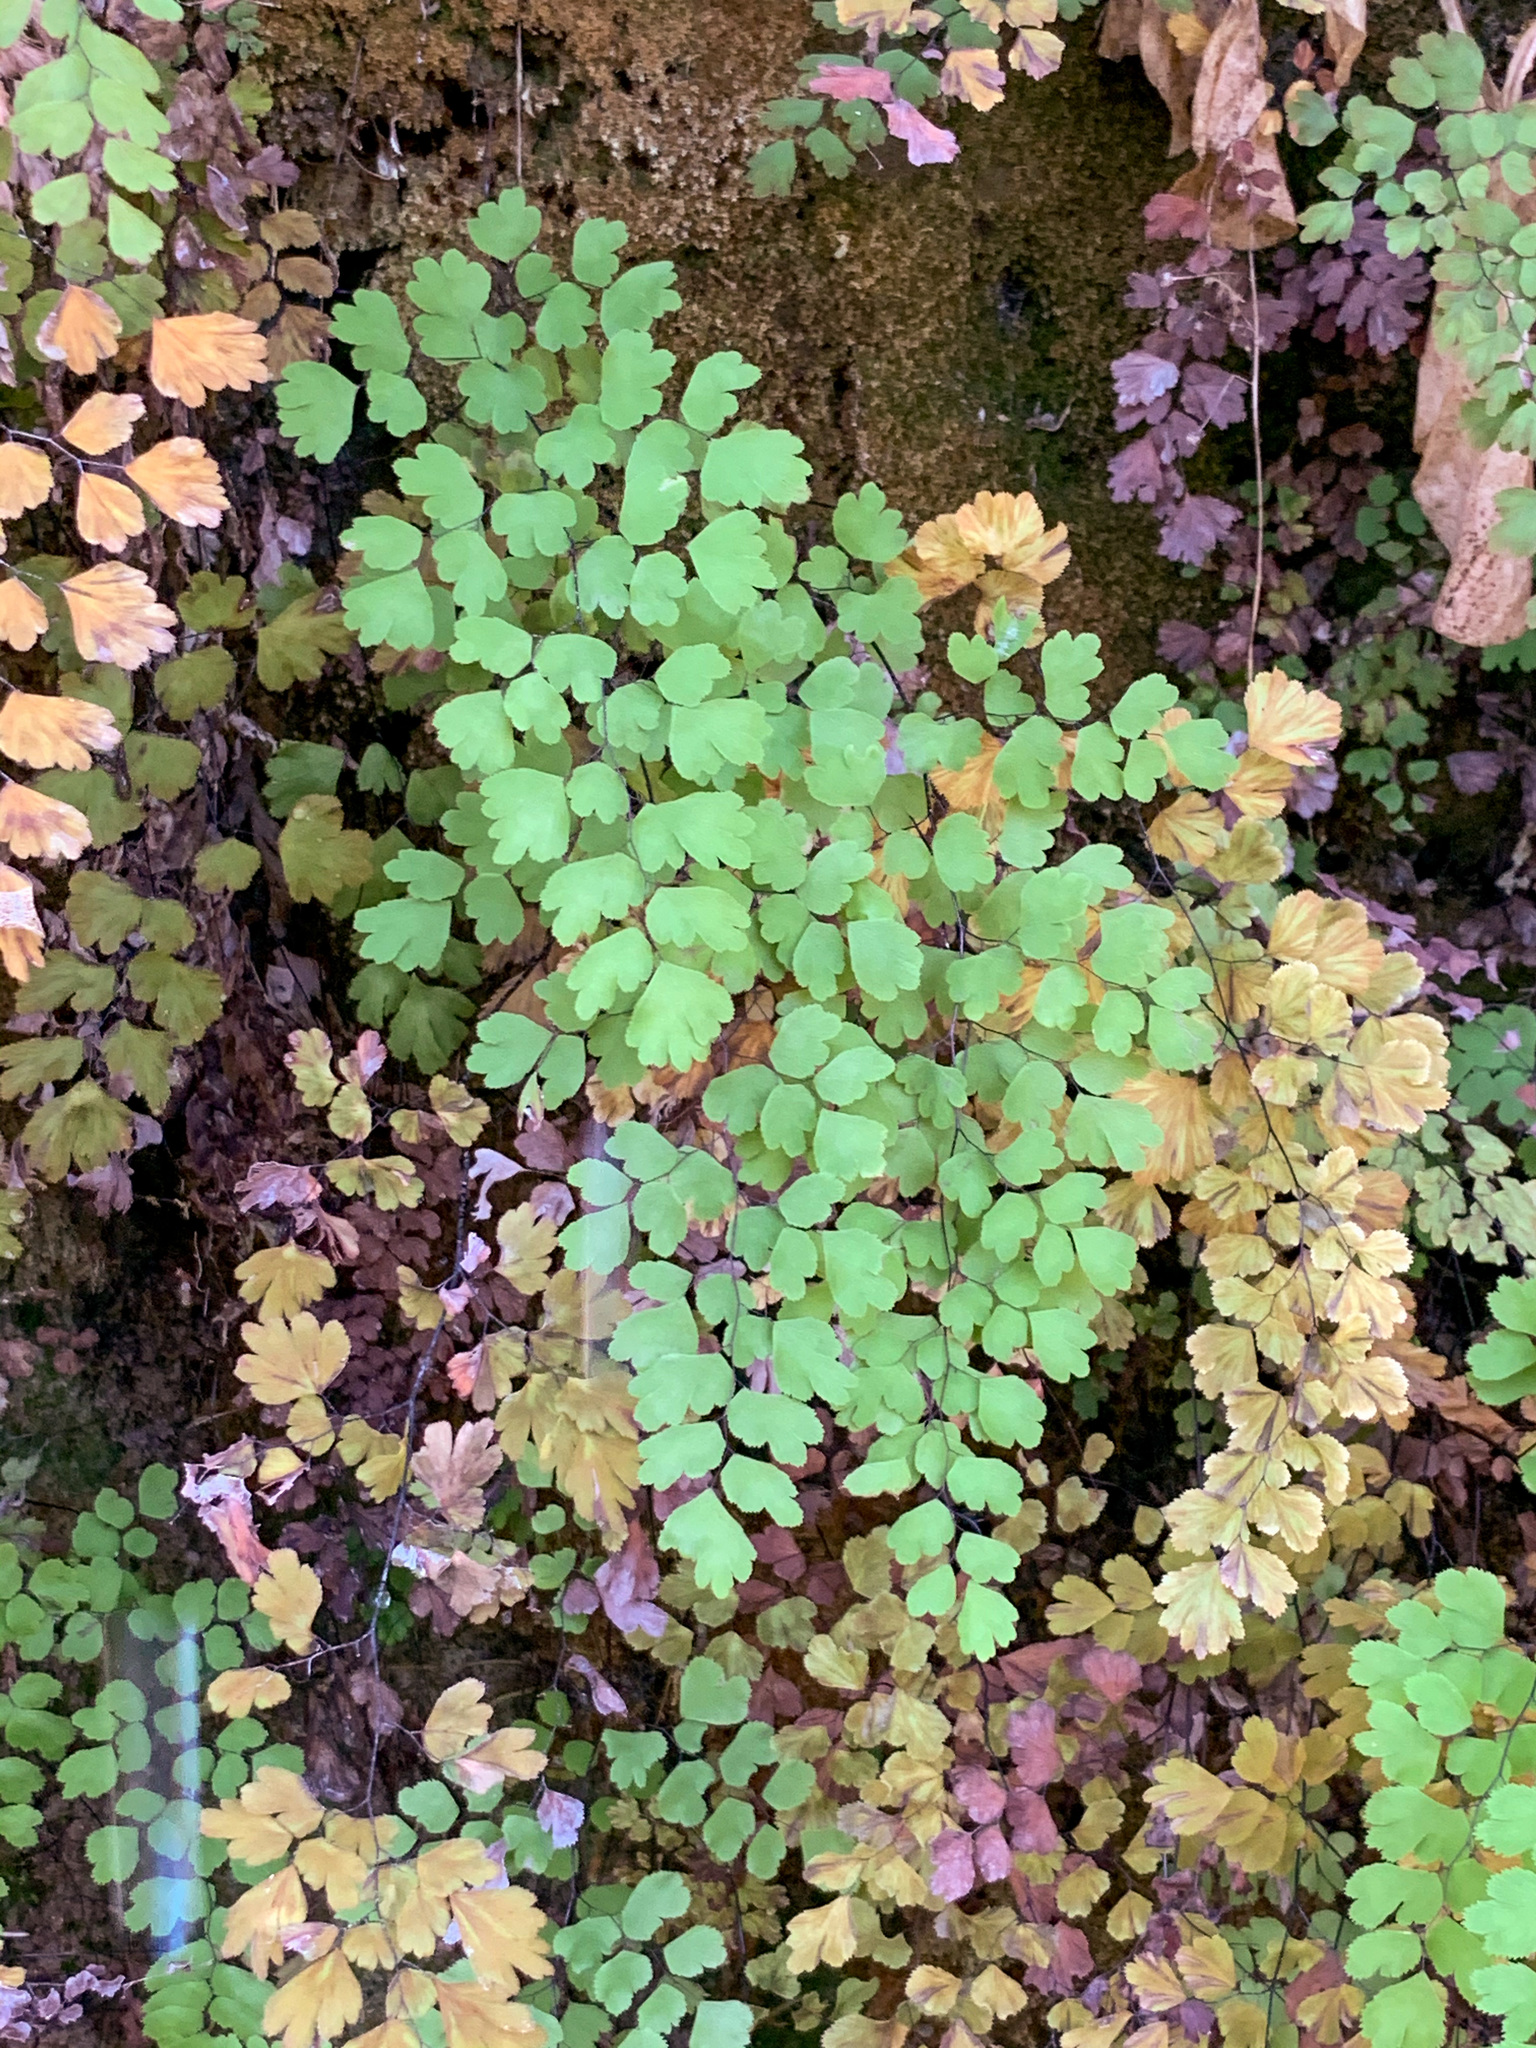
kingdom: Plantae
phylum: Tracheophyta
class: Polypodiopsida
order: Polypodiales
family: Pteridaceae
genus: Adiantum
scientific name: Adiantum capillus-veneris
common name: Maidenhair fern
